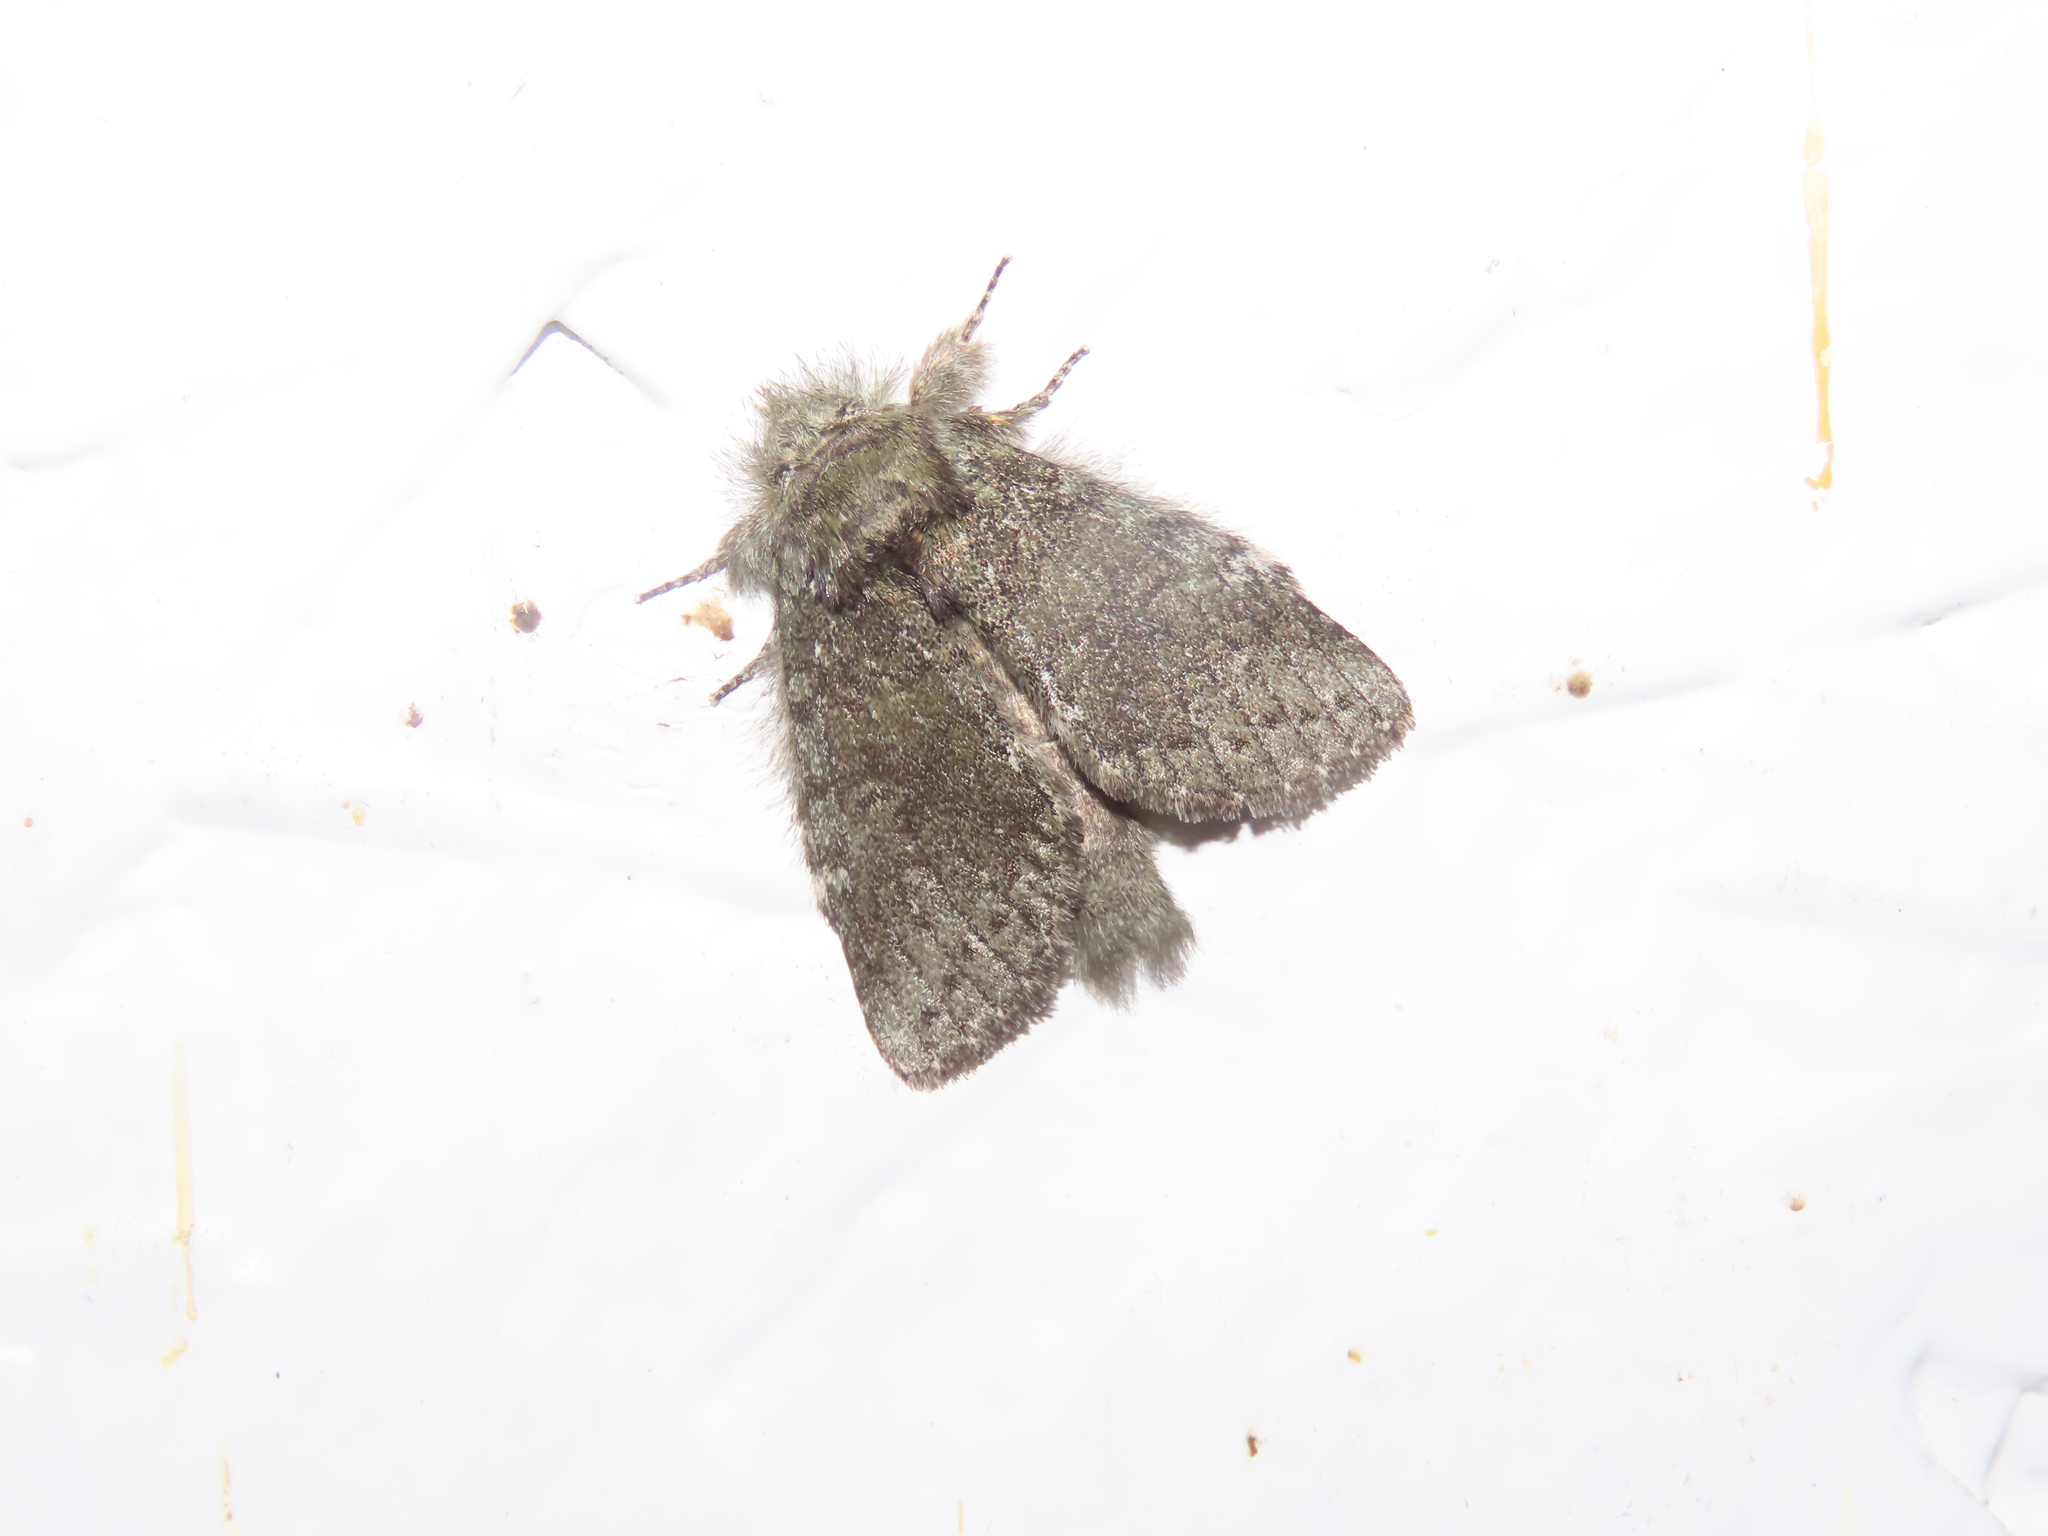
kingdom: Animalia
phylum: Arthropoda
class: Insecta
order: Lepidoptera
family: Notodontidae
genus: Disphragis
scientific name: Disphragis Cecrita guttivitta
